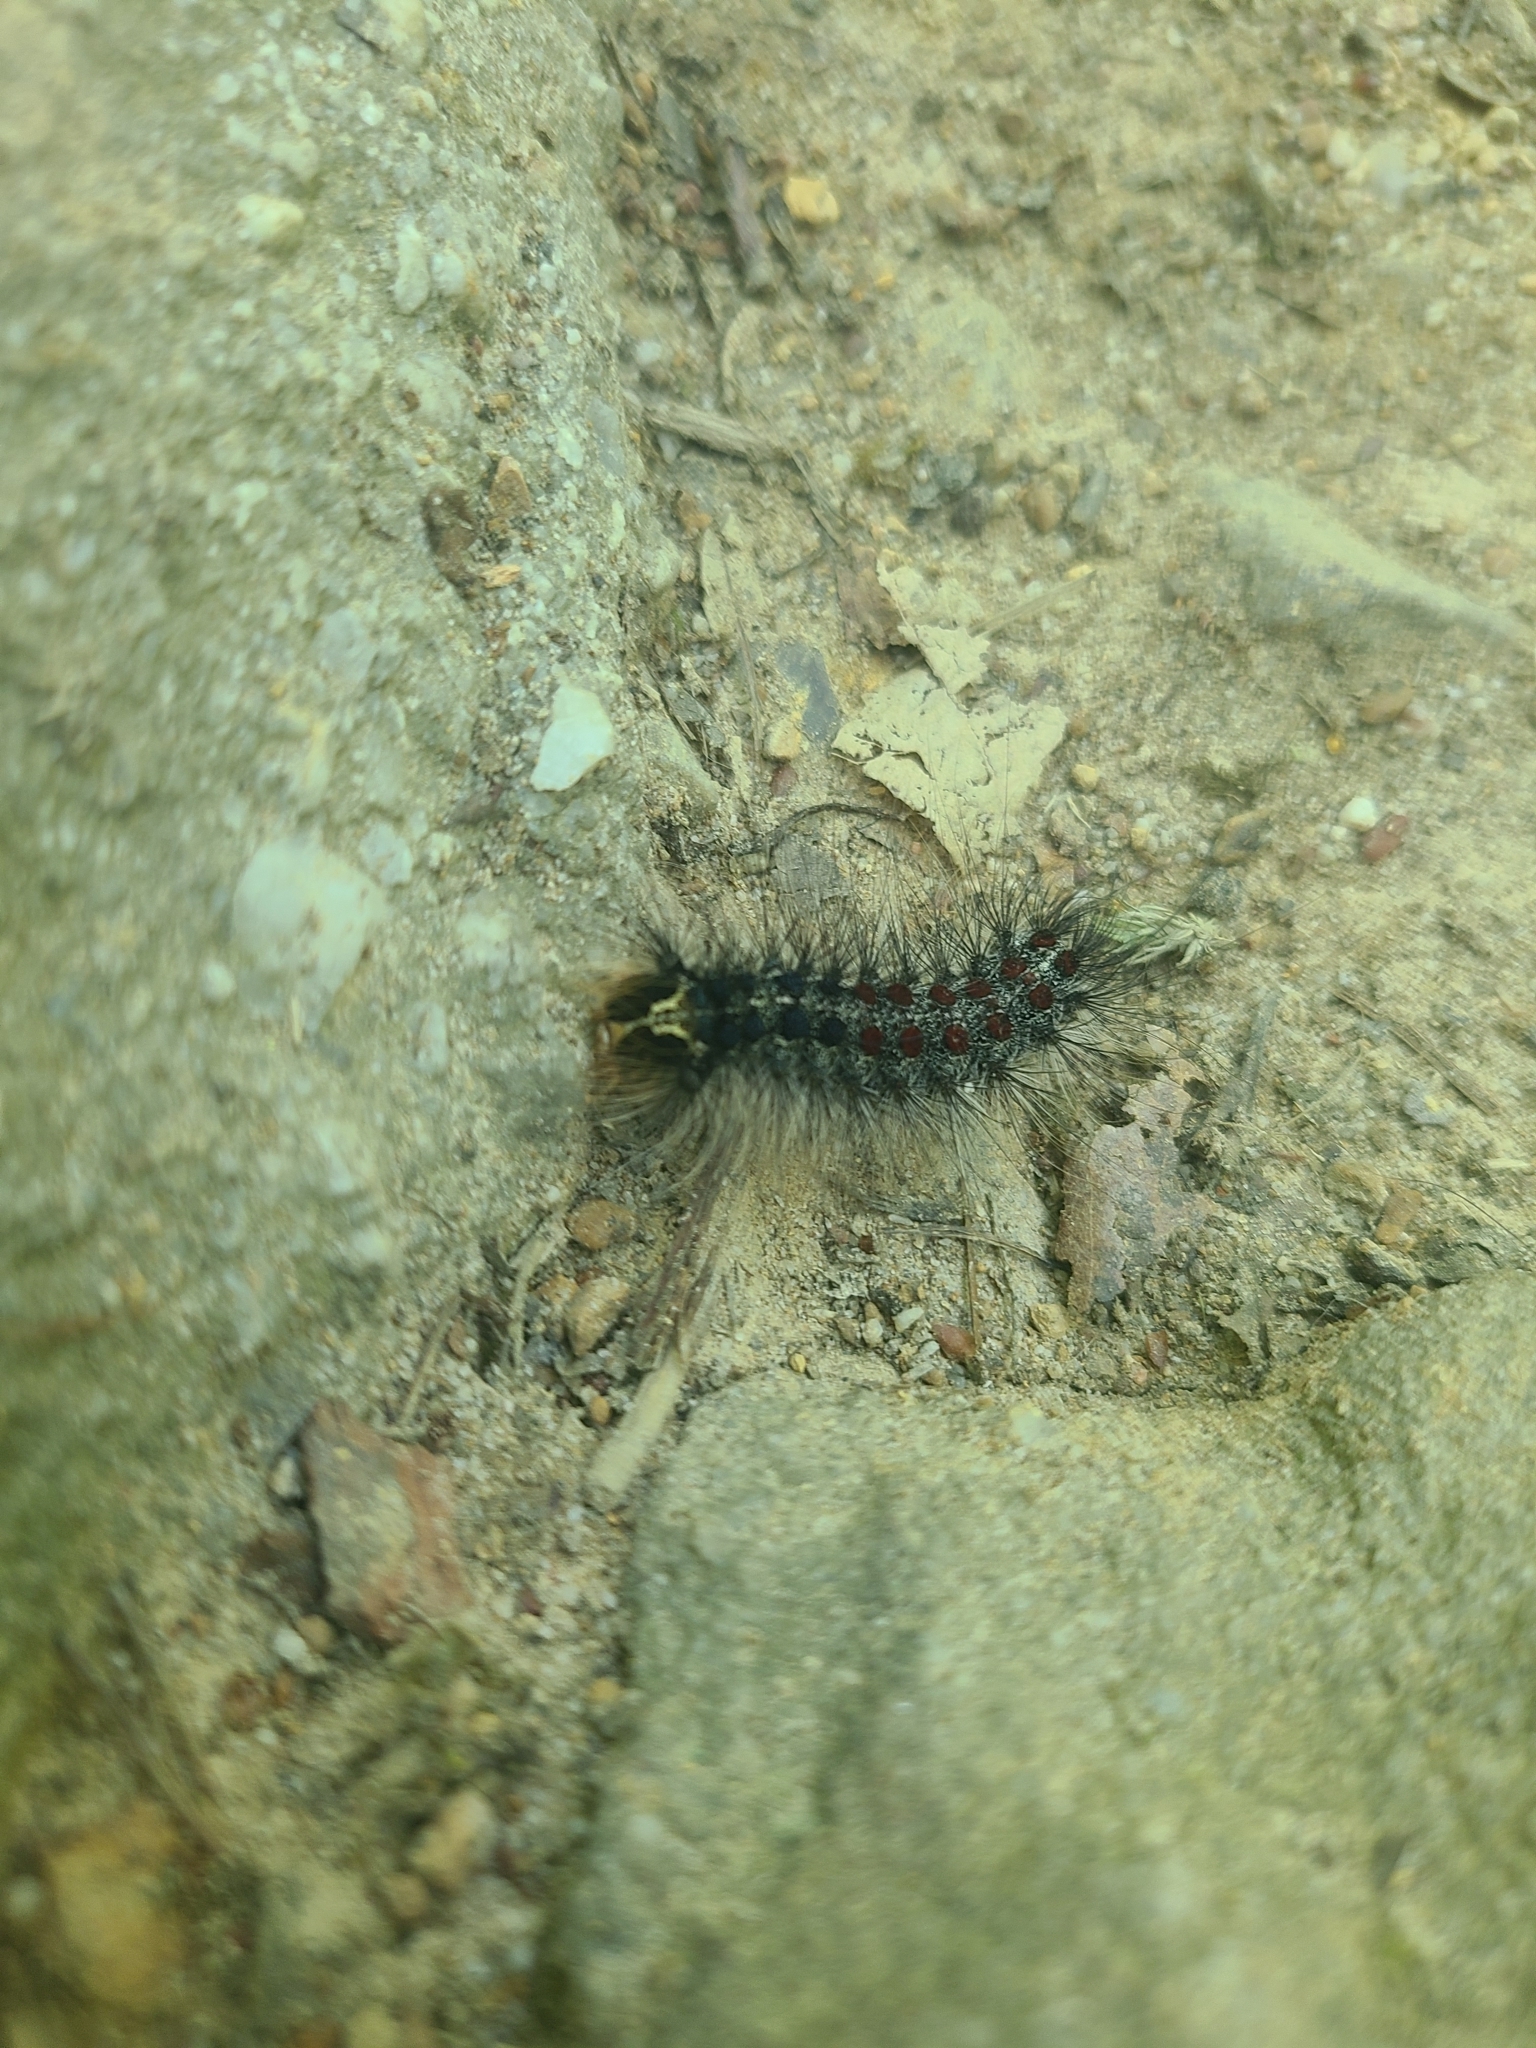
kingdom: Animalia
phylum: Arthropoda
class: Insecta
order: Lepidoptera
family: Erebidae
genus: Lymantria
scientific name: Lymantria dispar
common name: Gypsy moth
